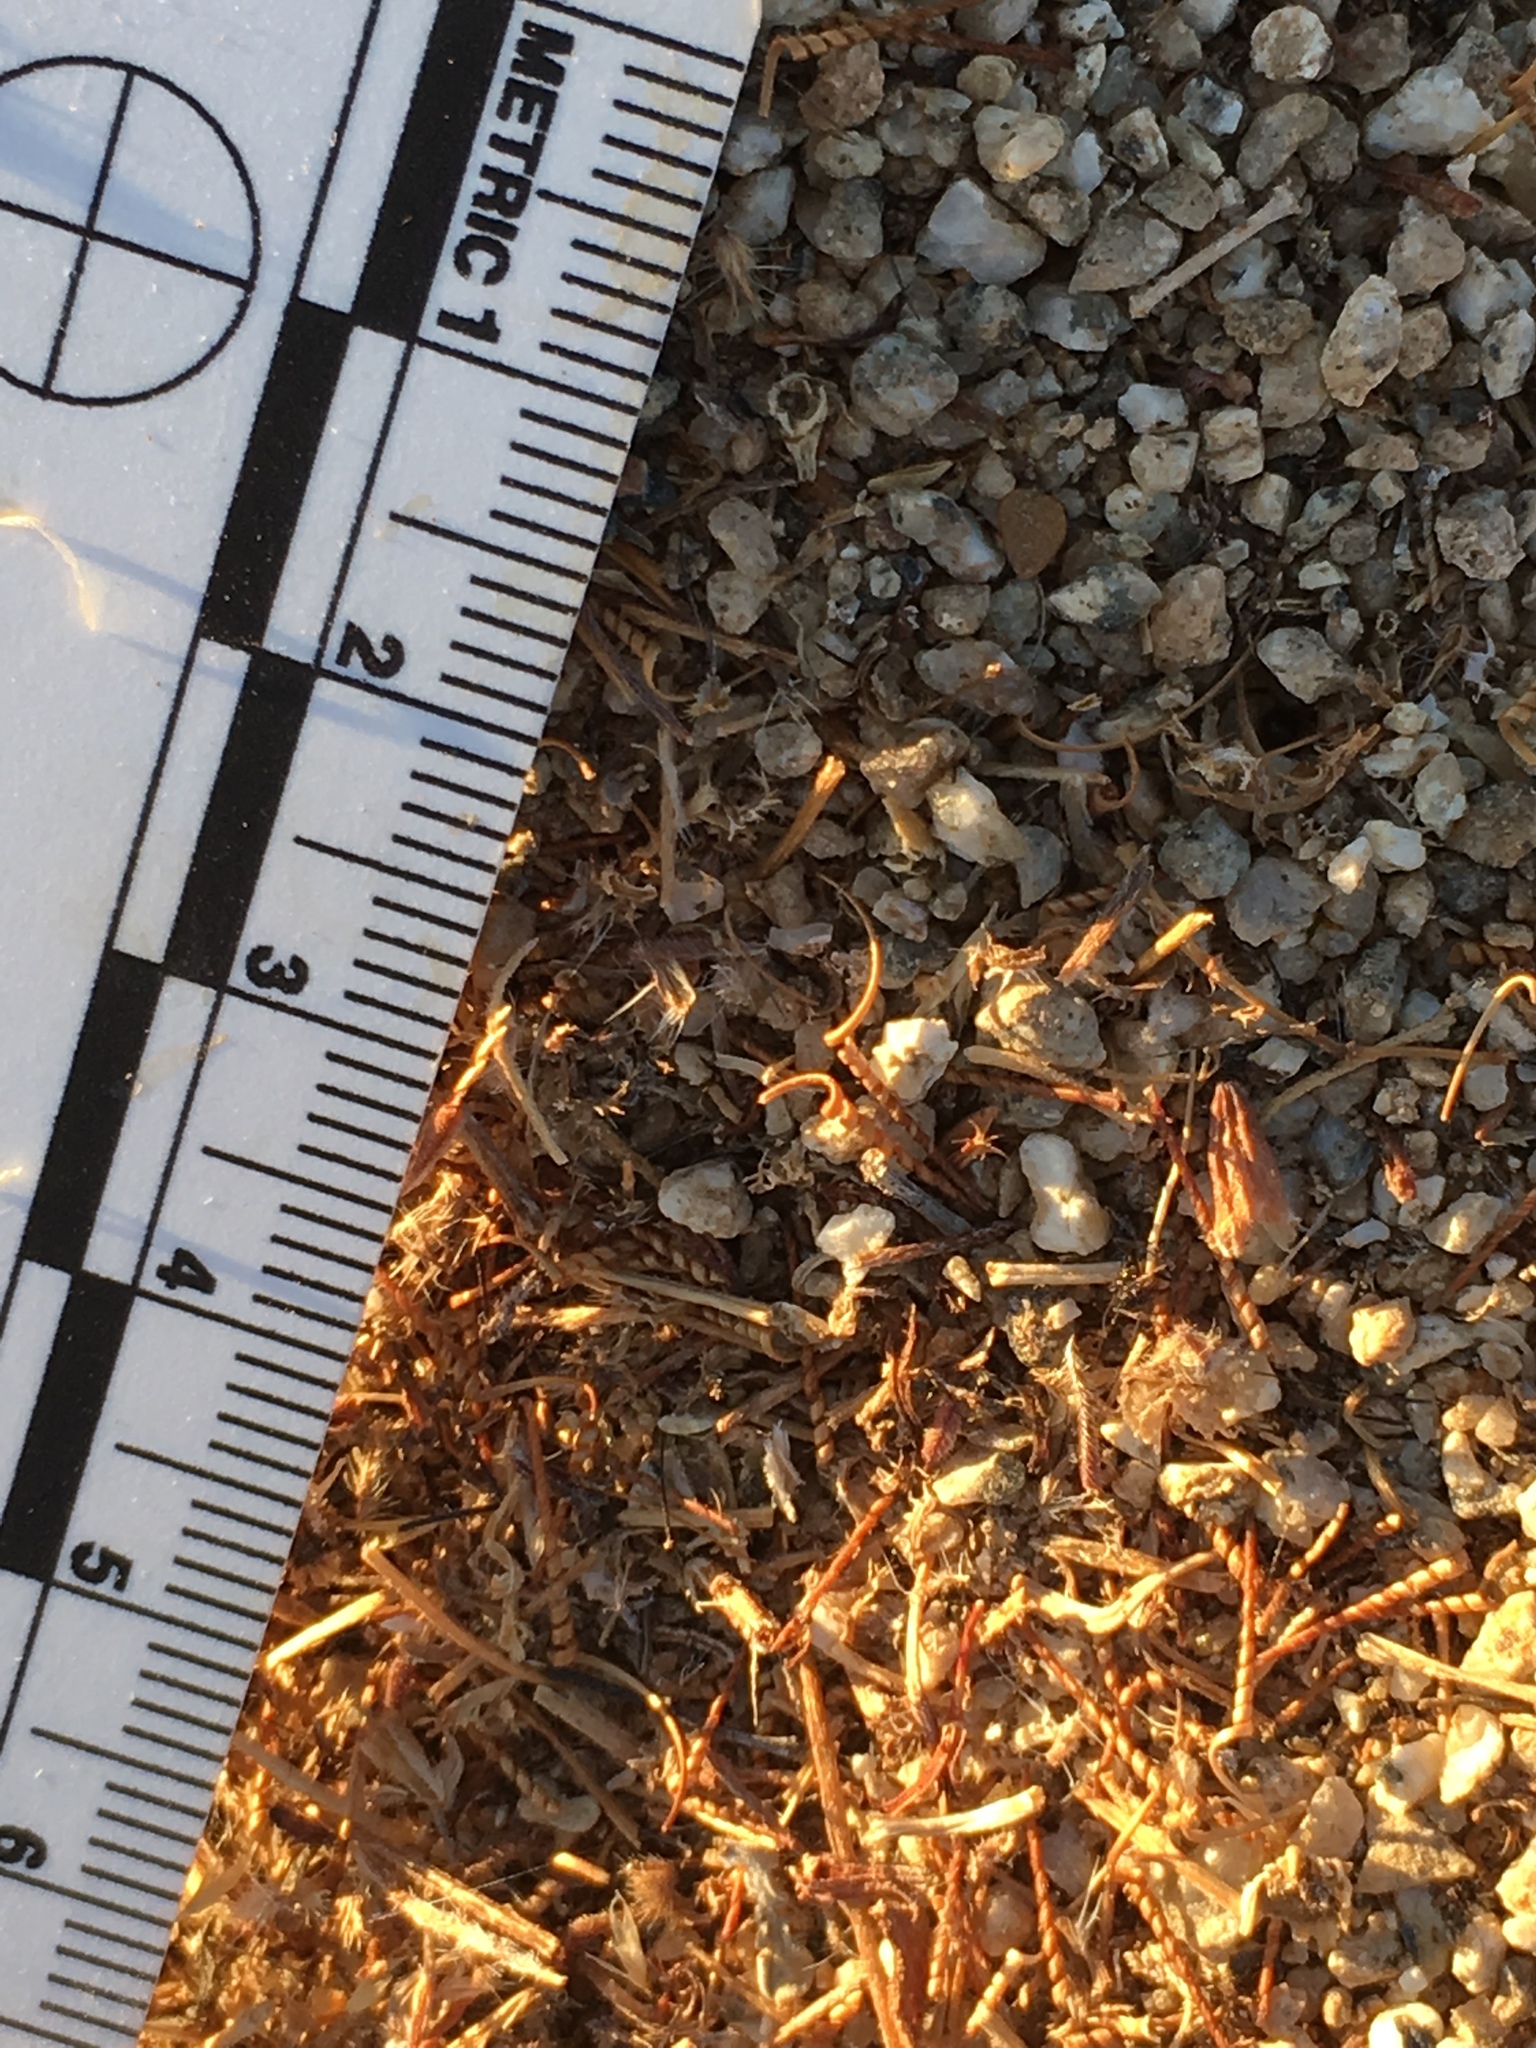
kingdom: Animalia
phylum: Arthropoda
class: Insecta
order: Hymenoptera
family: Formicidae
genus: Messor
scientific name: Messor pergandei
